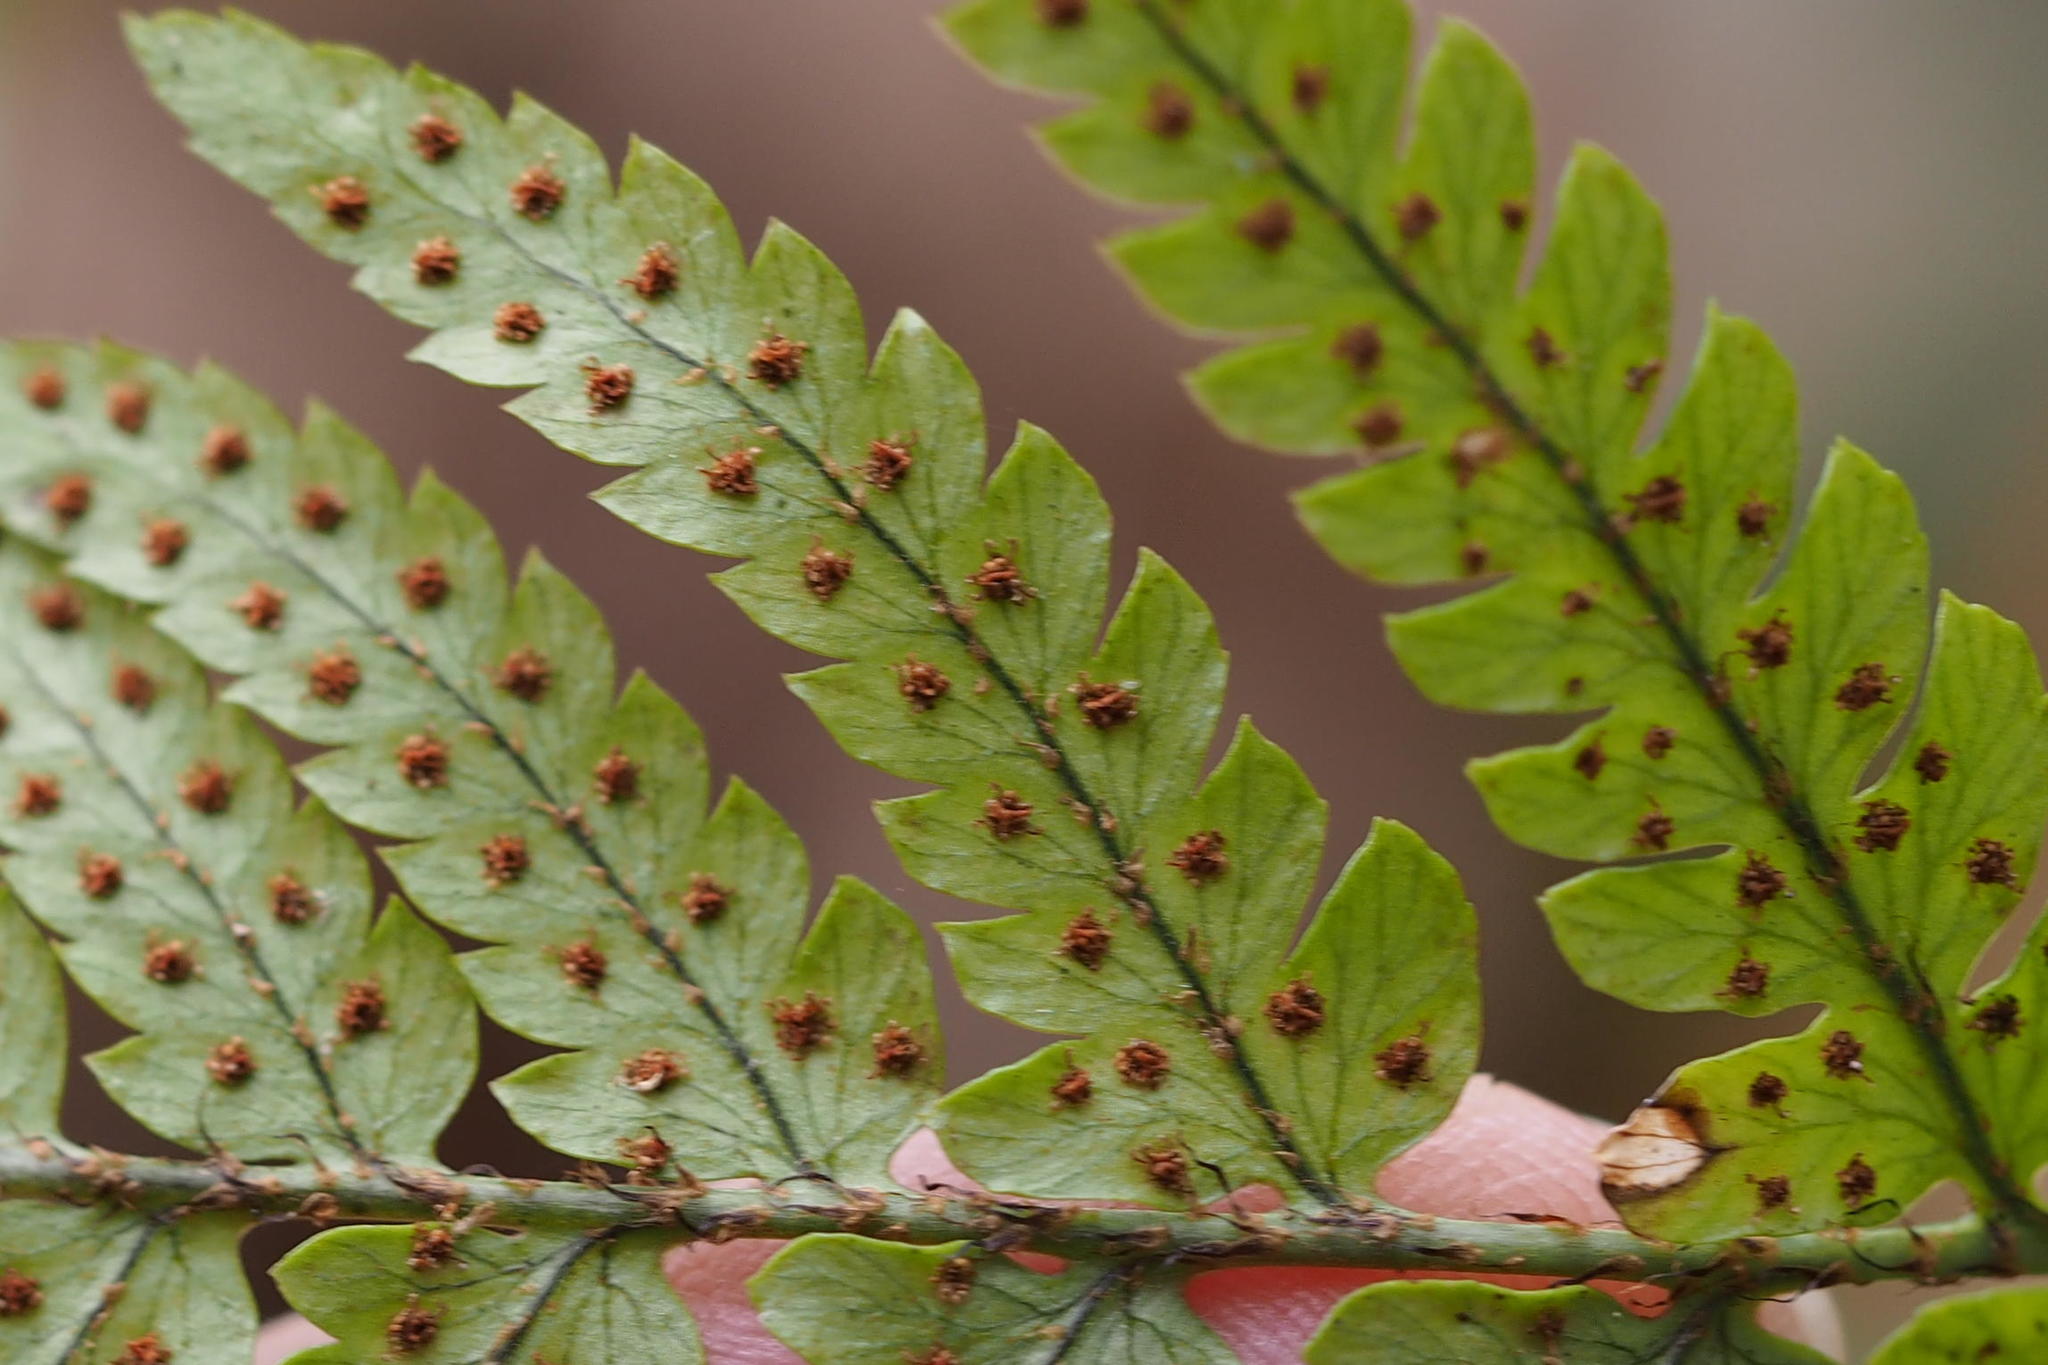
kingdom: Plantae
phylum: Tracheophyta
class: Polypodiopsida
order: Polypodiales
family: Dryopteridaceae
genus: Dryopteris
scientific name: Dryopteris sacrosancta
